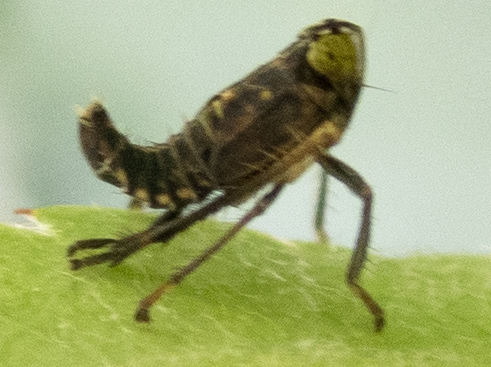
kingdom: Animalia
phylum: Arthropoda
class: Insecta
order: Hemiptera
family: Cicadellidae
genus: Jikradia
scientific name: Jikradia olitoria
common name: Coppery leafhopper
